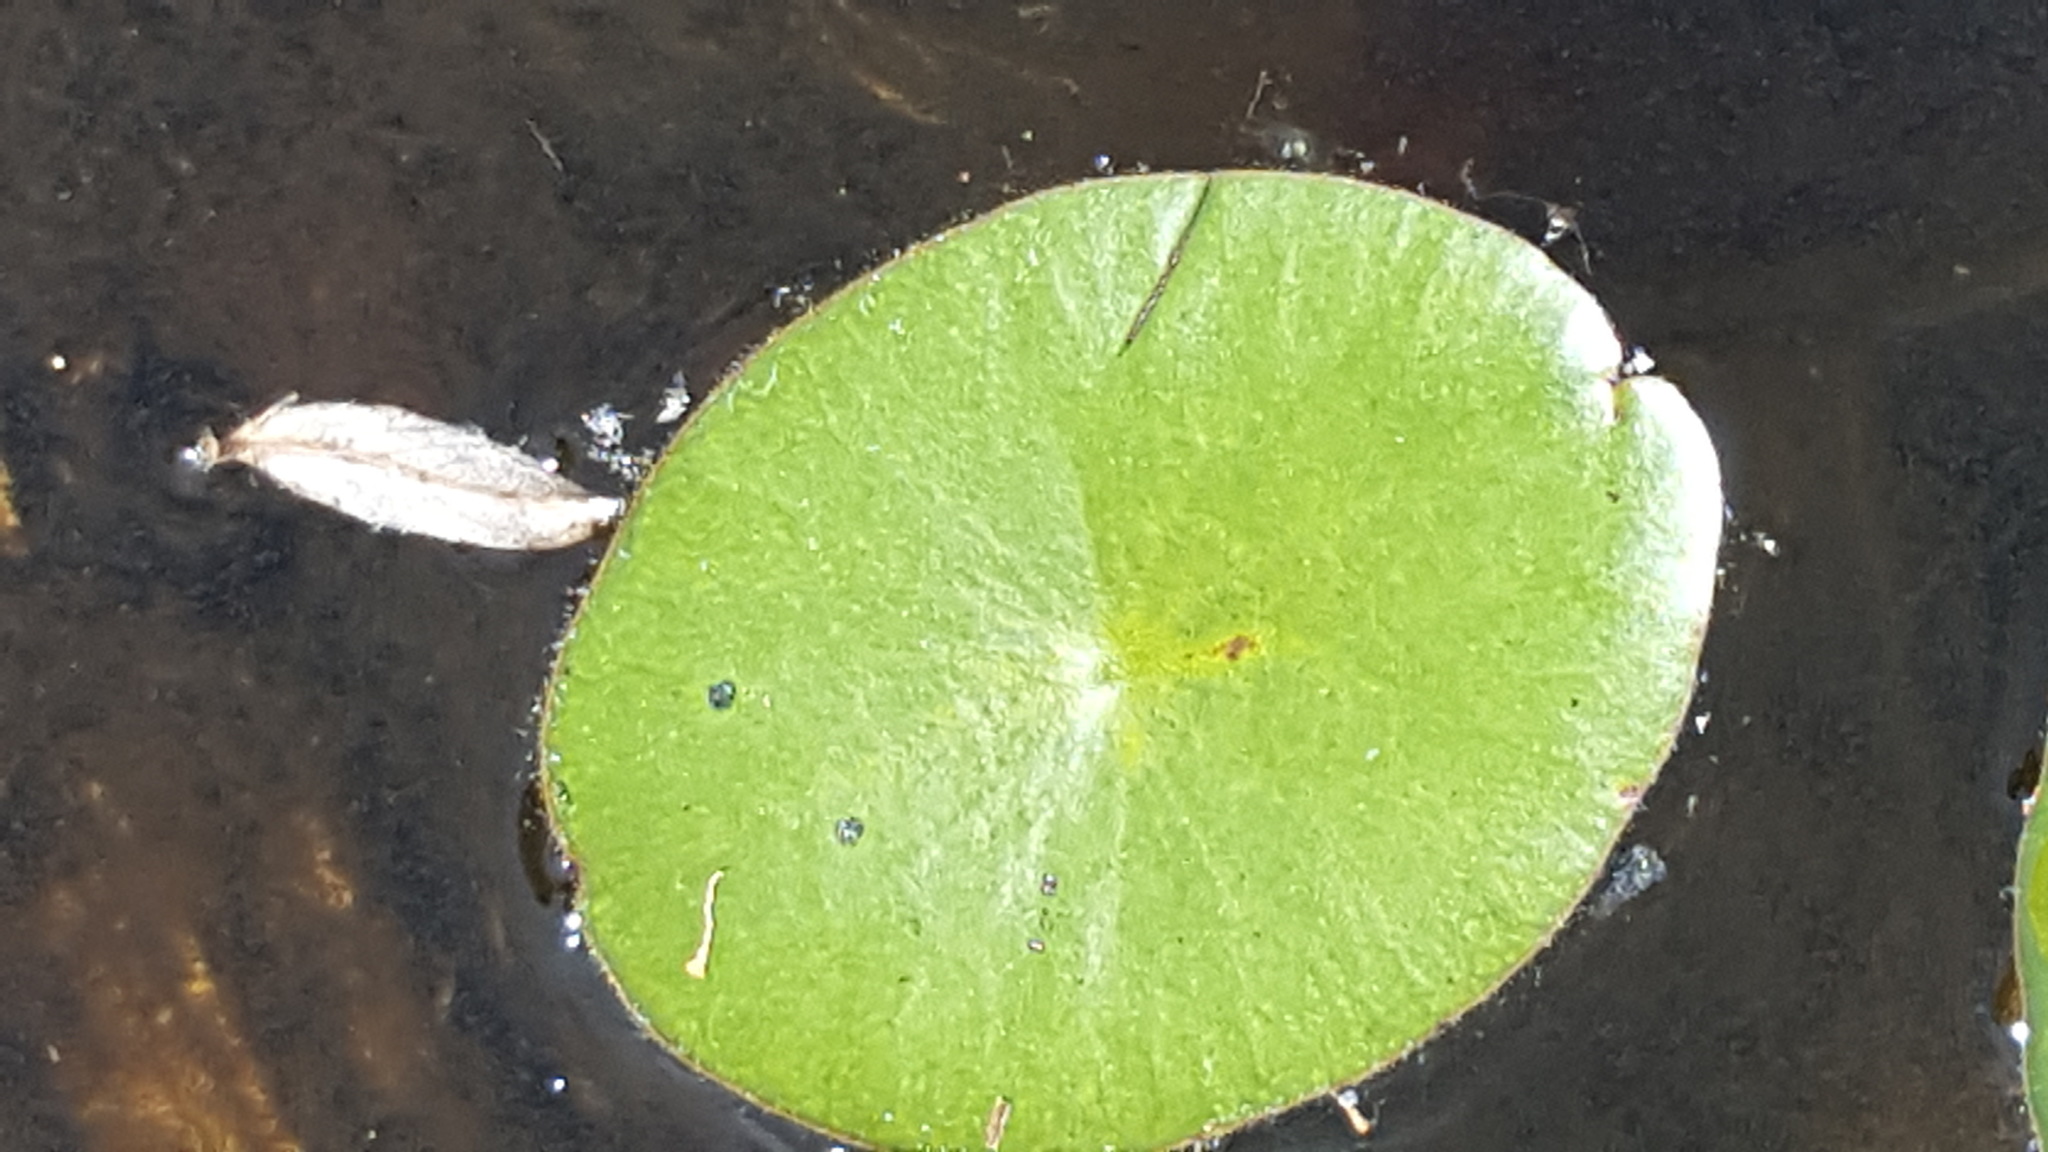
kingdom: Plantae
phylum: Tracheophyta
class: Magnoliopsida
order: Nymphaeales
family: Cabombaceae
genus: Brasenia
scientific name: Brasenia schreberi
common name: Water-shield
